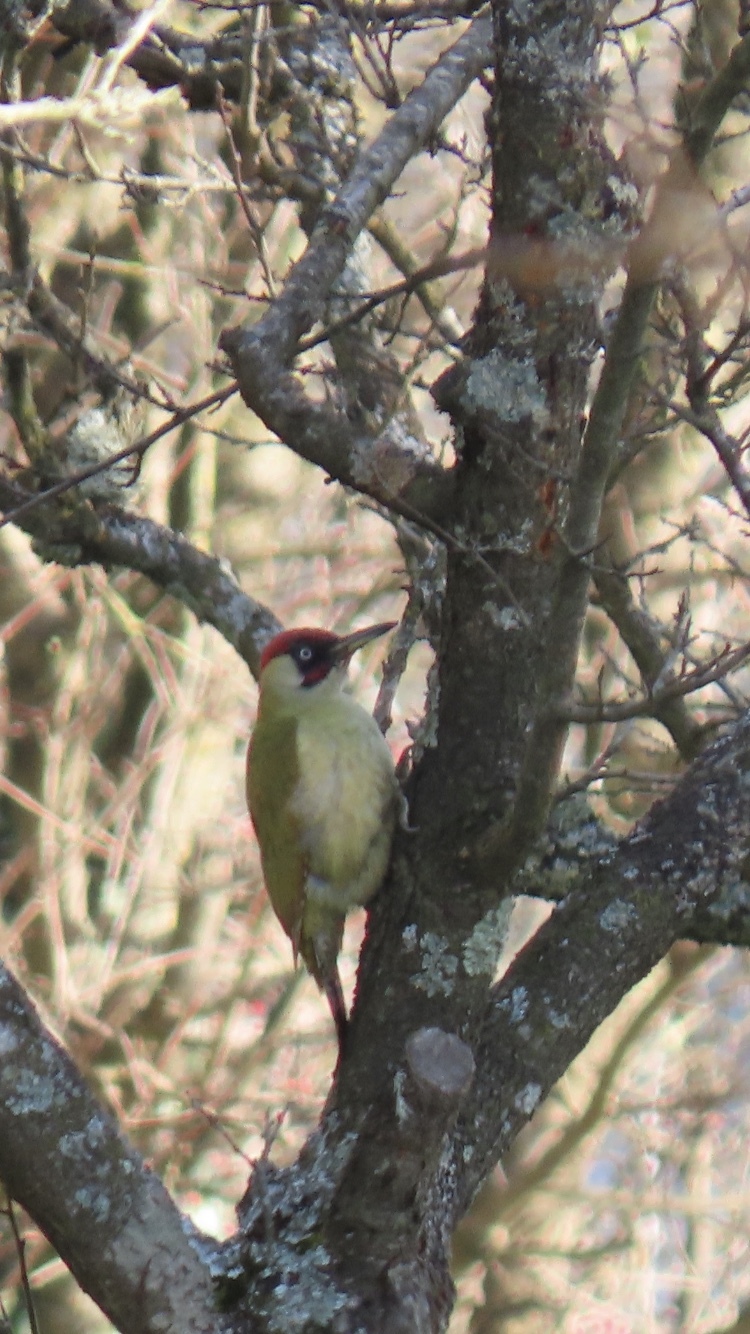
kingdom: Animalia
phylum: Chordata
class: Aves
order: Piciformes
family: Picidae
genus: Picus
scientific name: Picus viridis
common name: European green woodpecker
